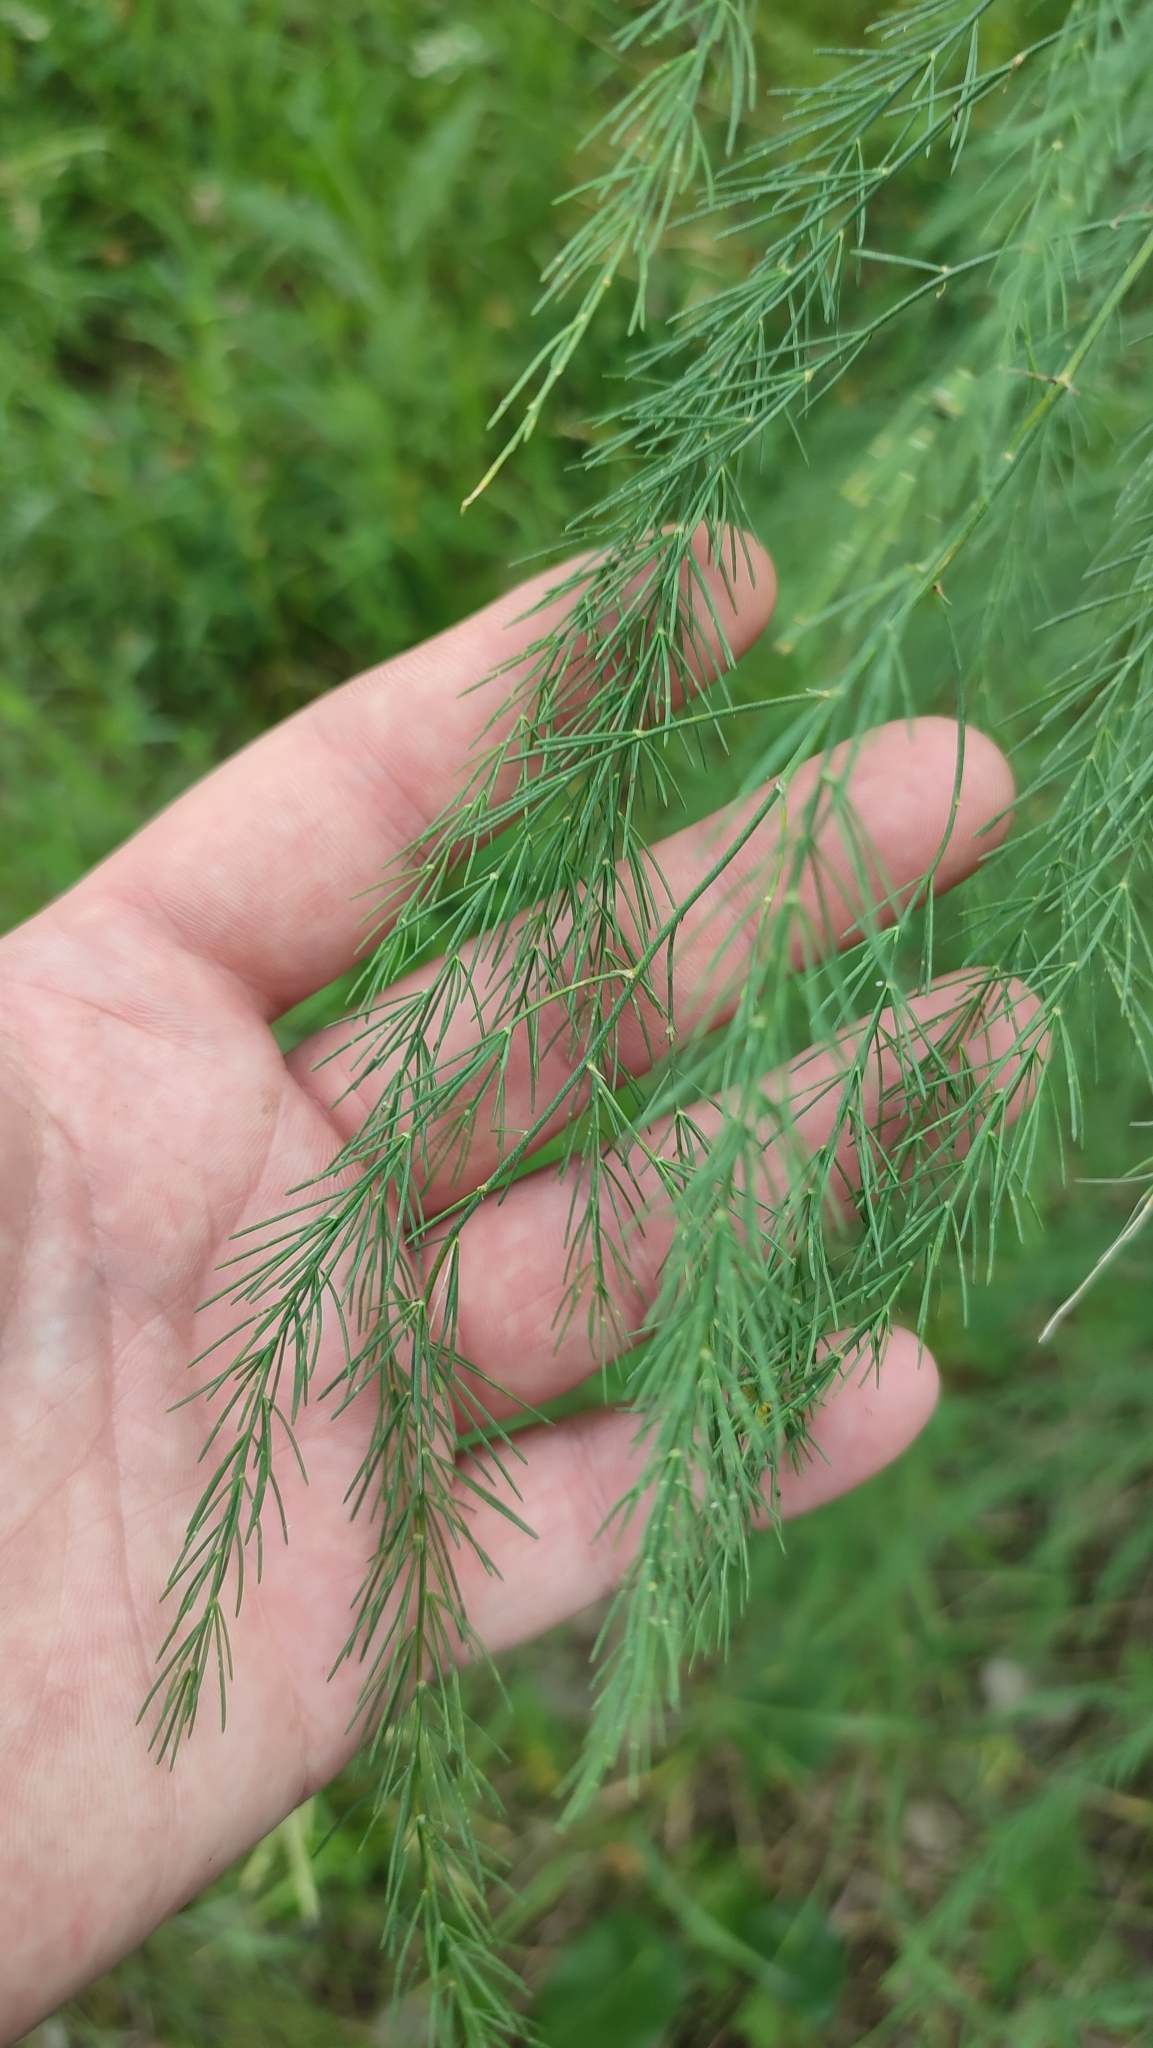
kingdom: Plantae
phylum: Tracheophyta
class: Liliopsida
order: Asparagales
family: Asparagaceae
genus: Asparagus
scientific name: Asparagus officinalis
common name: Garden asparagus
